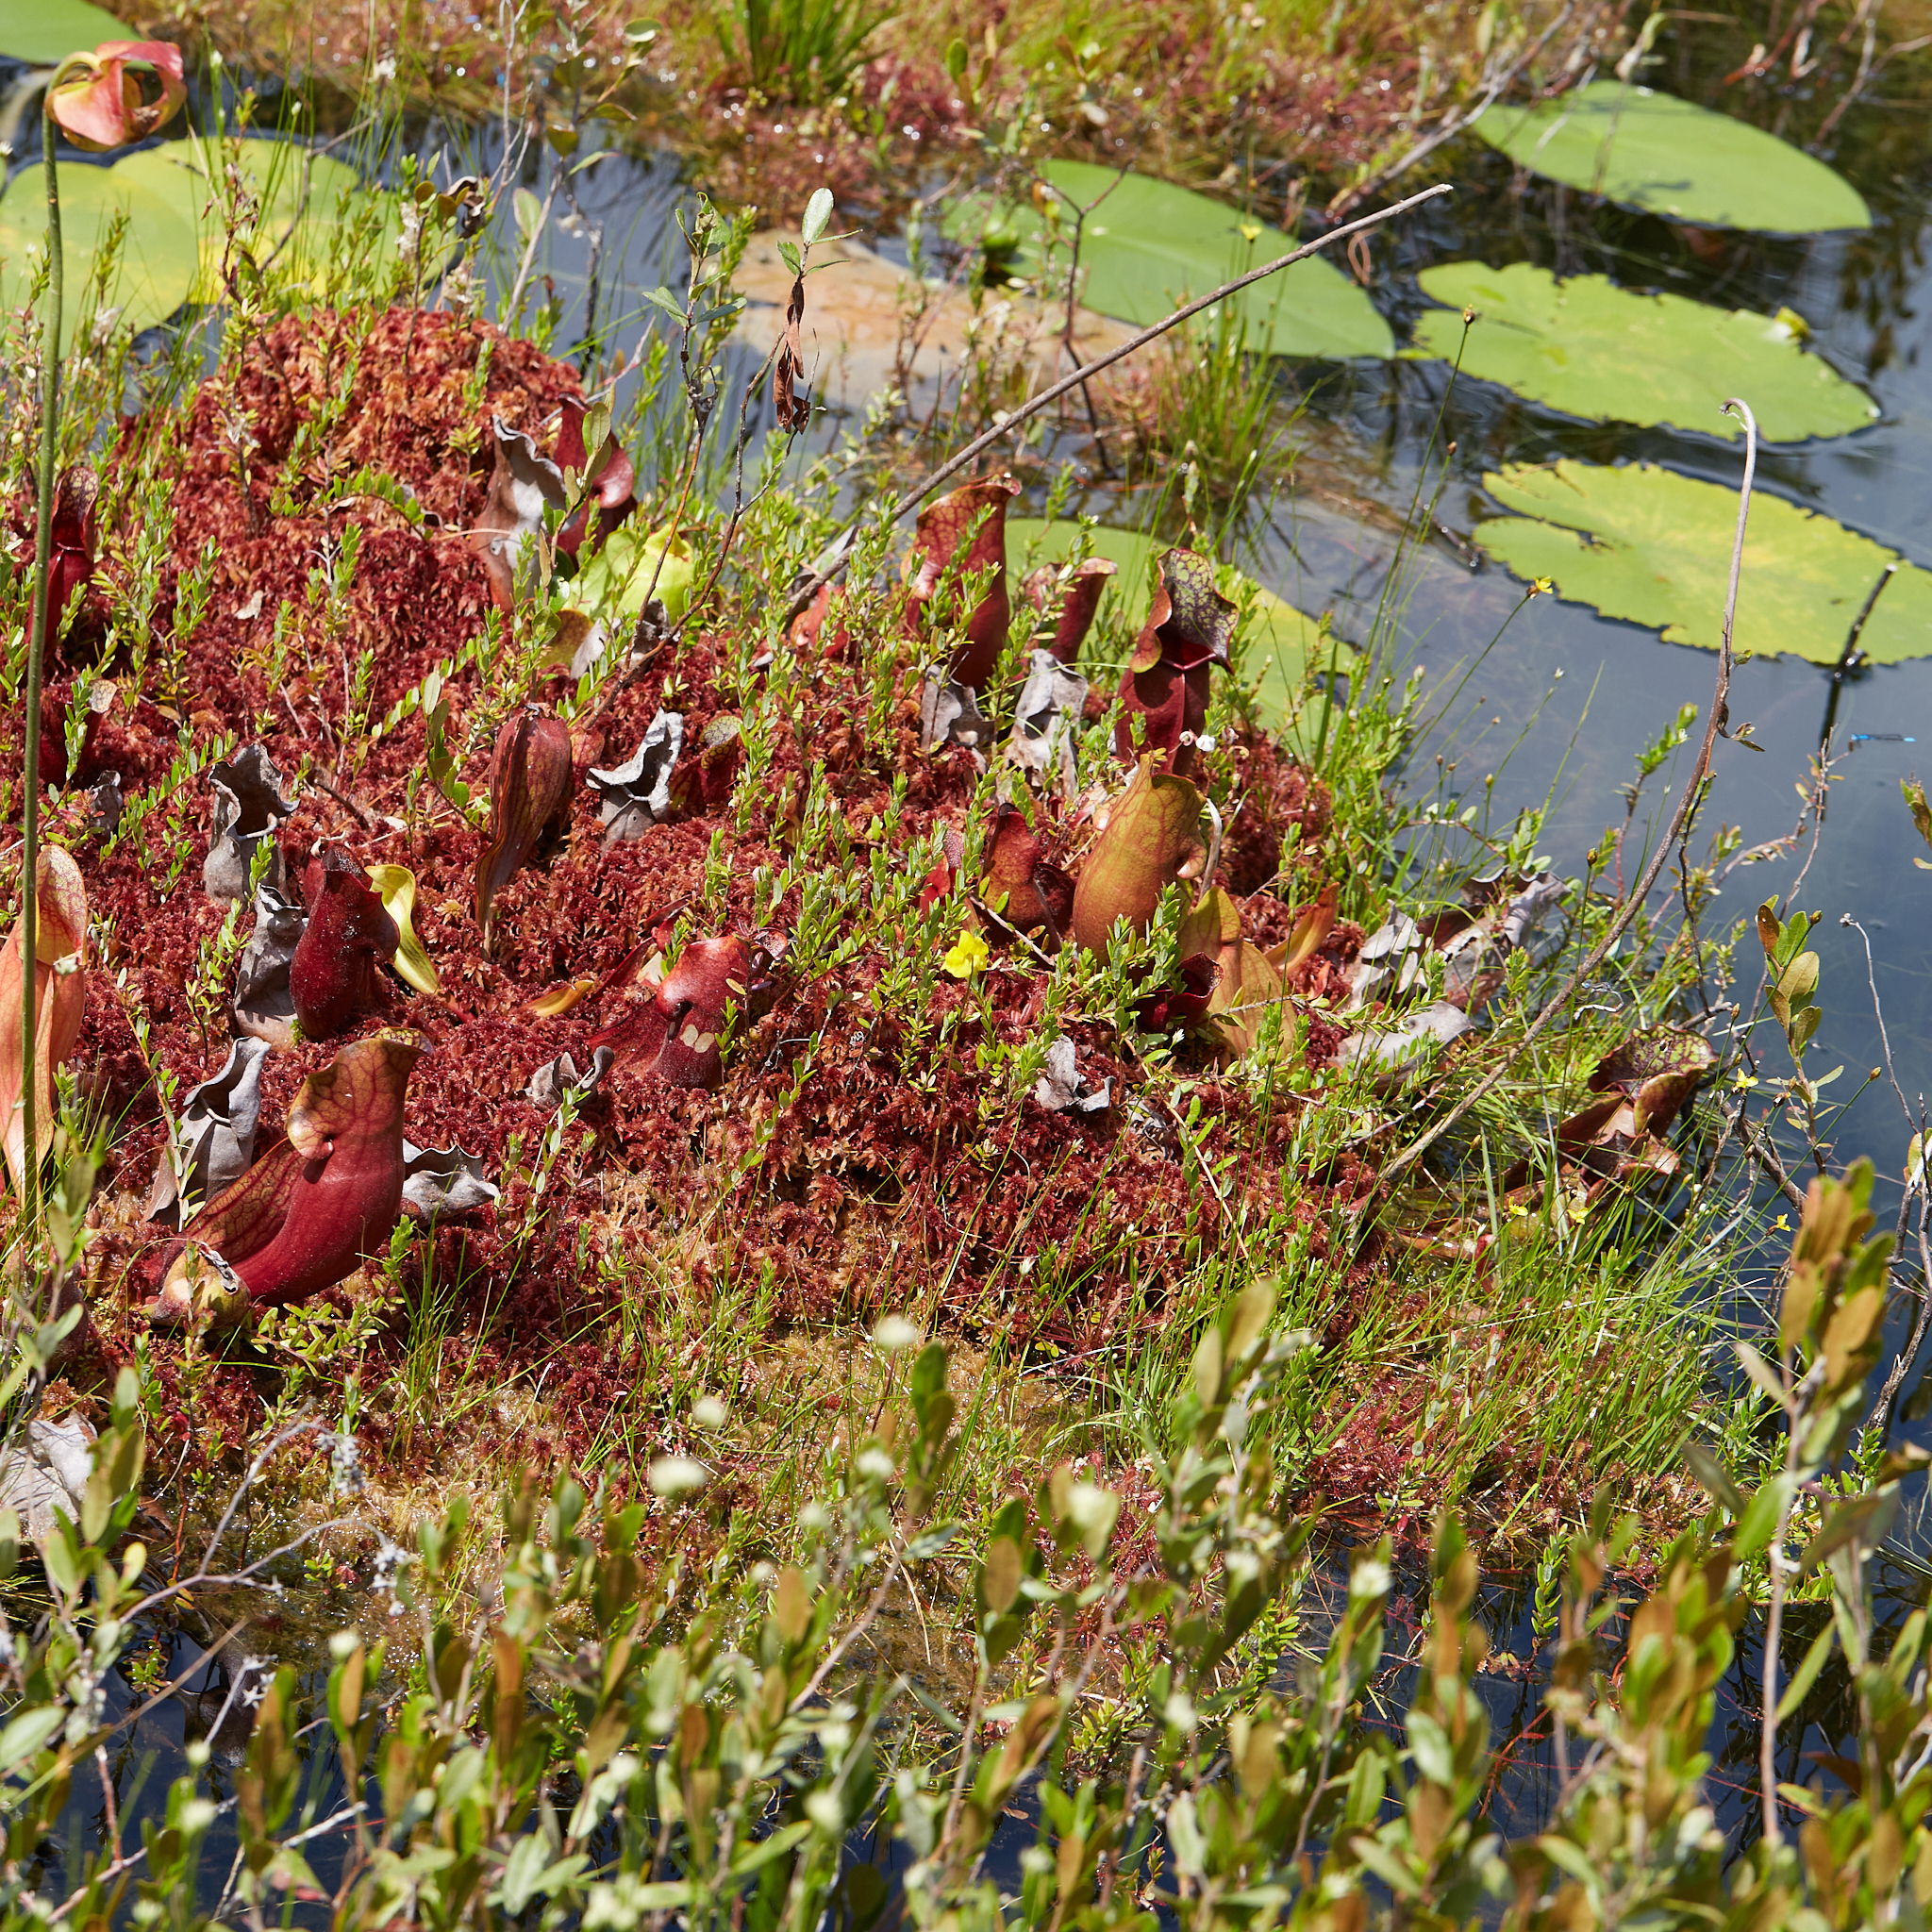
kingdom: Plantae
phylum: Tracheophyta
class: Magnoliopsida
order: Ericales
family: Sarraceniaceae
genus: Sarracenia
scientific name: Sarracenia purpurea
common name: Pitcherplant
